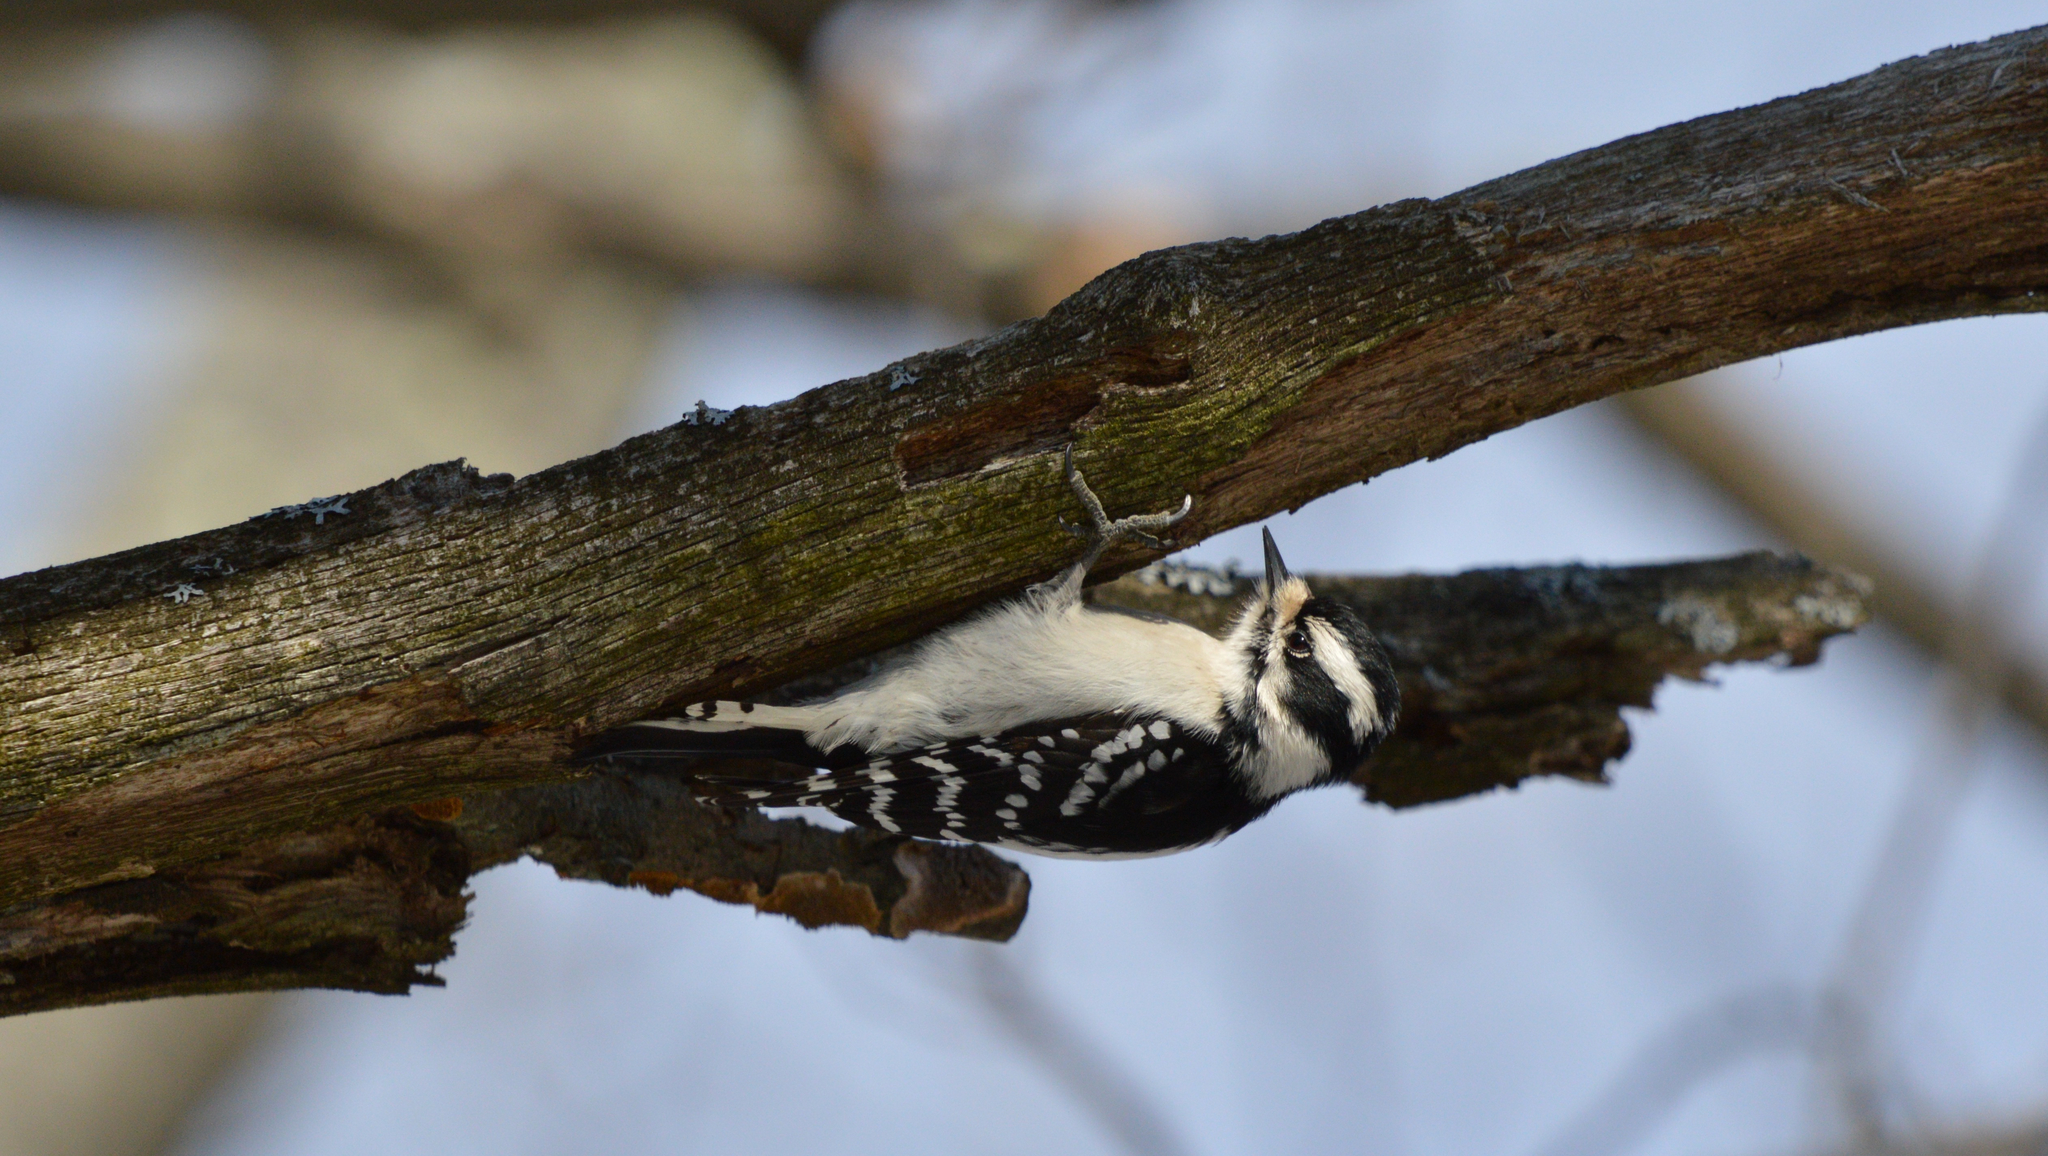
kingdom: Animalia
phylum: Chordata
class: Aves
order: Piciformes
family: Picidae
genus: Dryobates
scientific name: Dryobates pubescens
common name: Downy woodpecker
